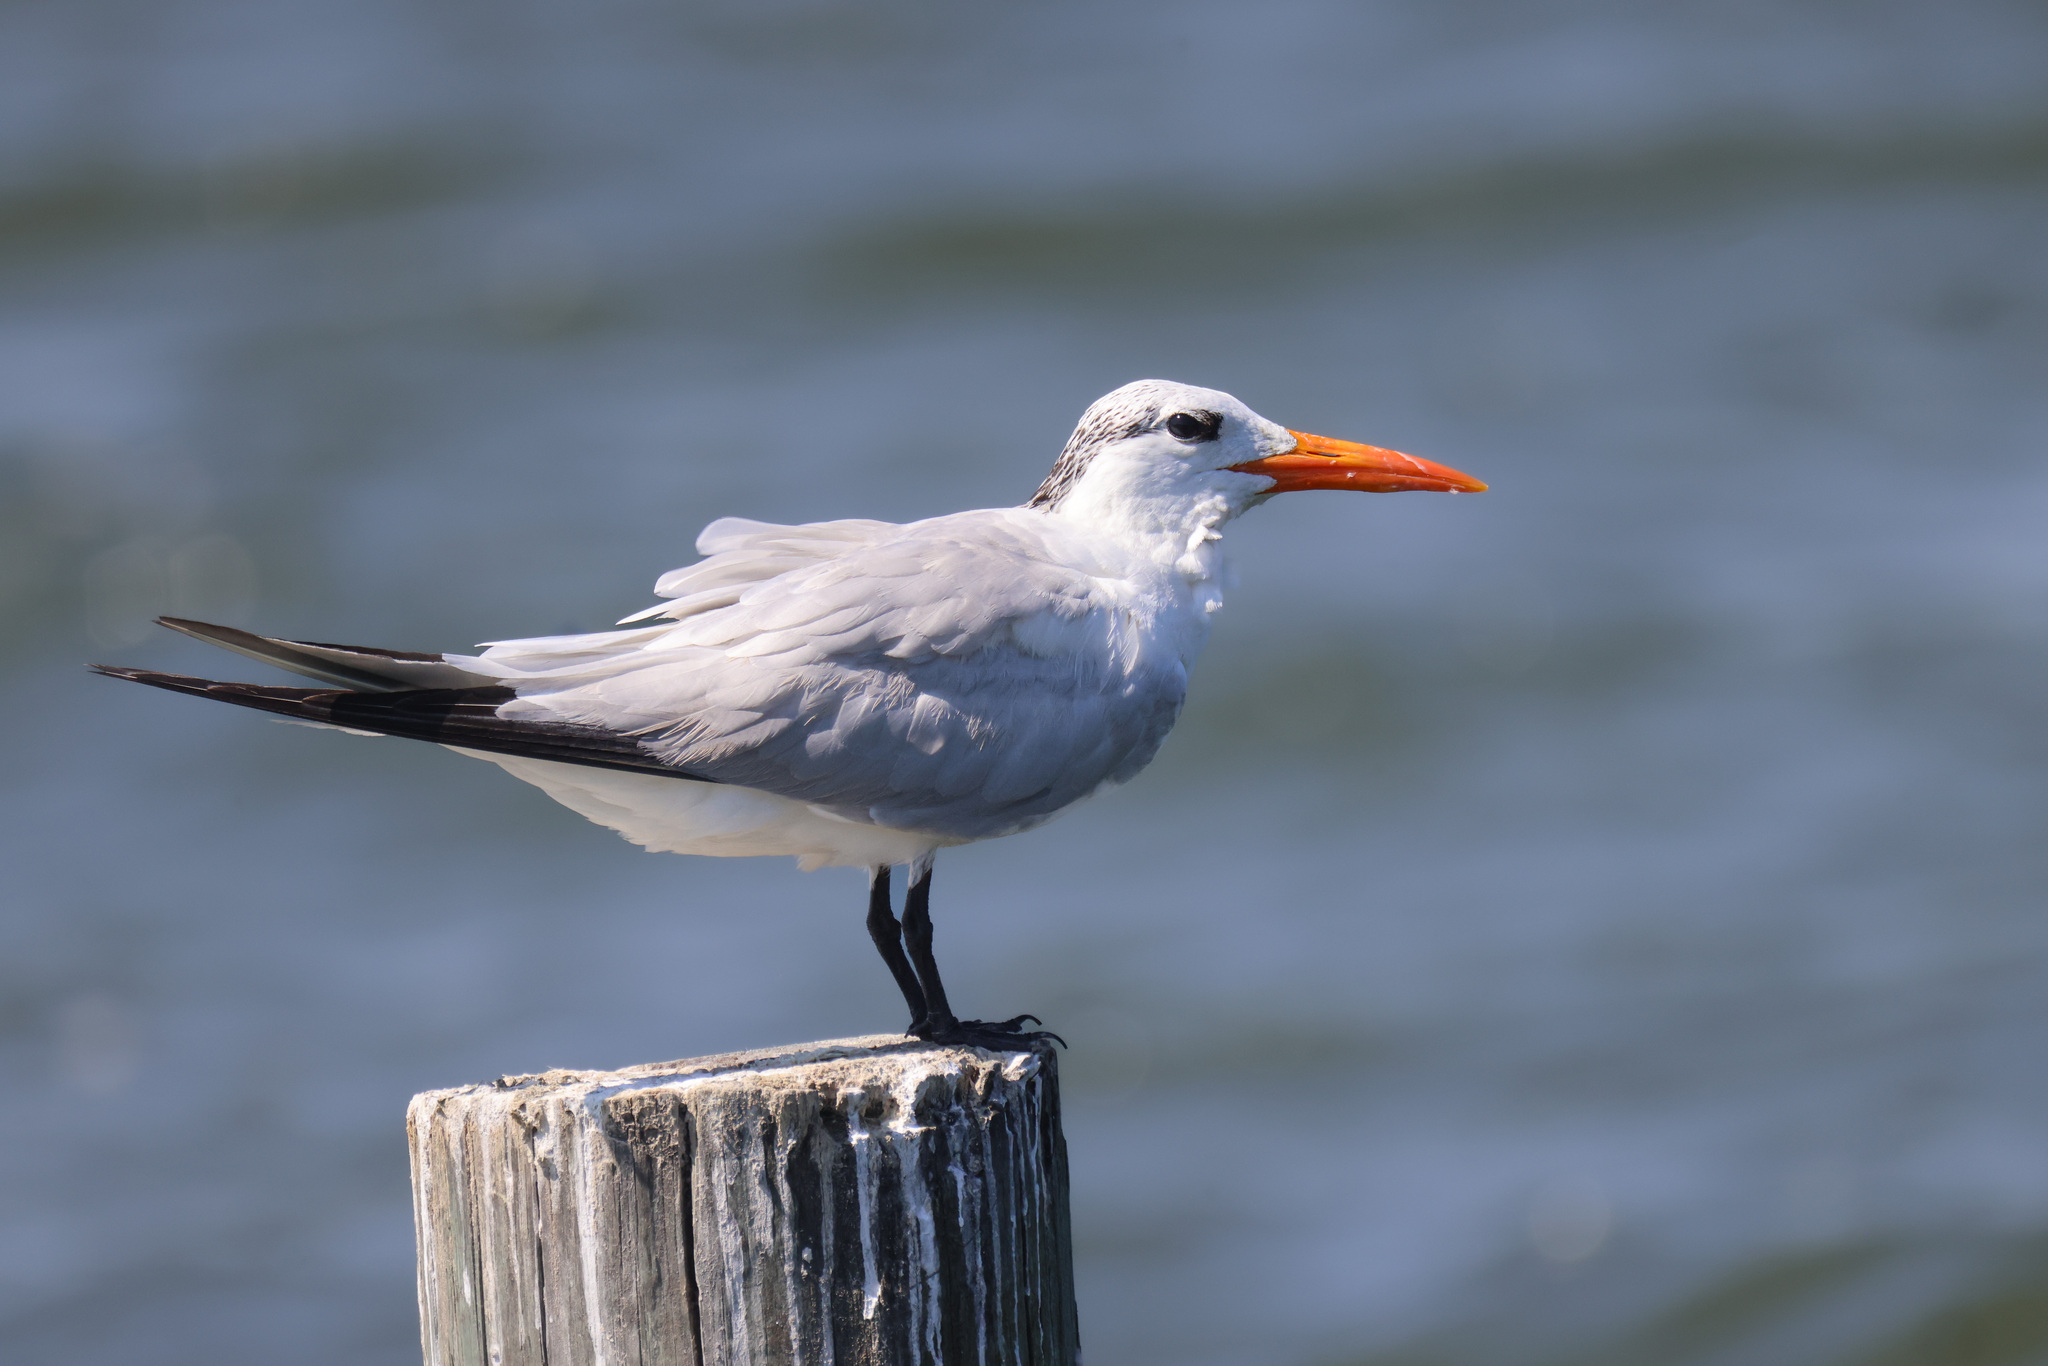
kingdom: Animalia
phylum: Chordata
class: Aves
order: Charadriiformes
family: Laridae
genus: Thalasseus
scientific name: Thalasseus maximus
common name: Royal tern
